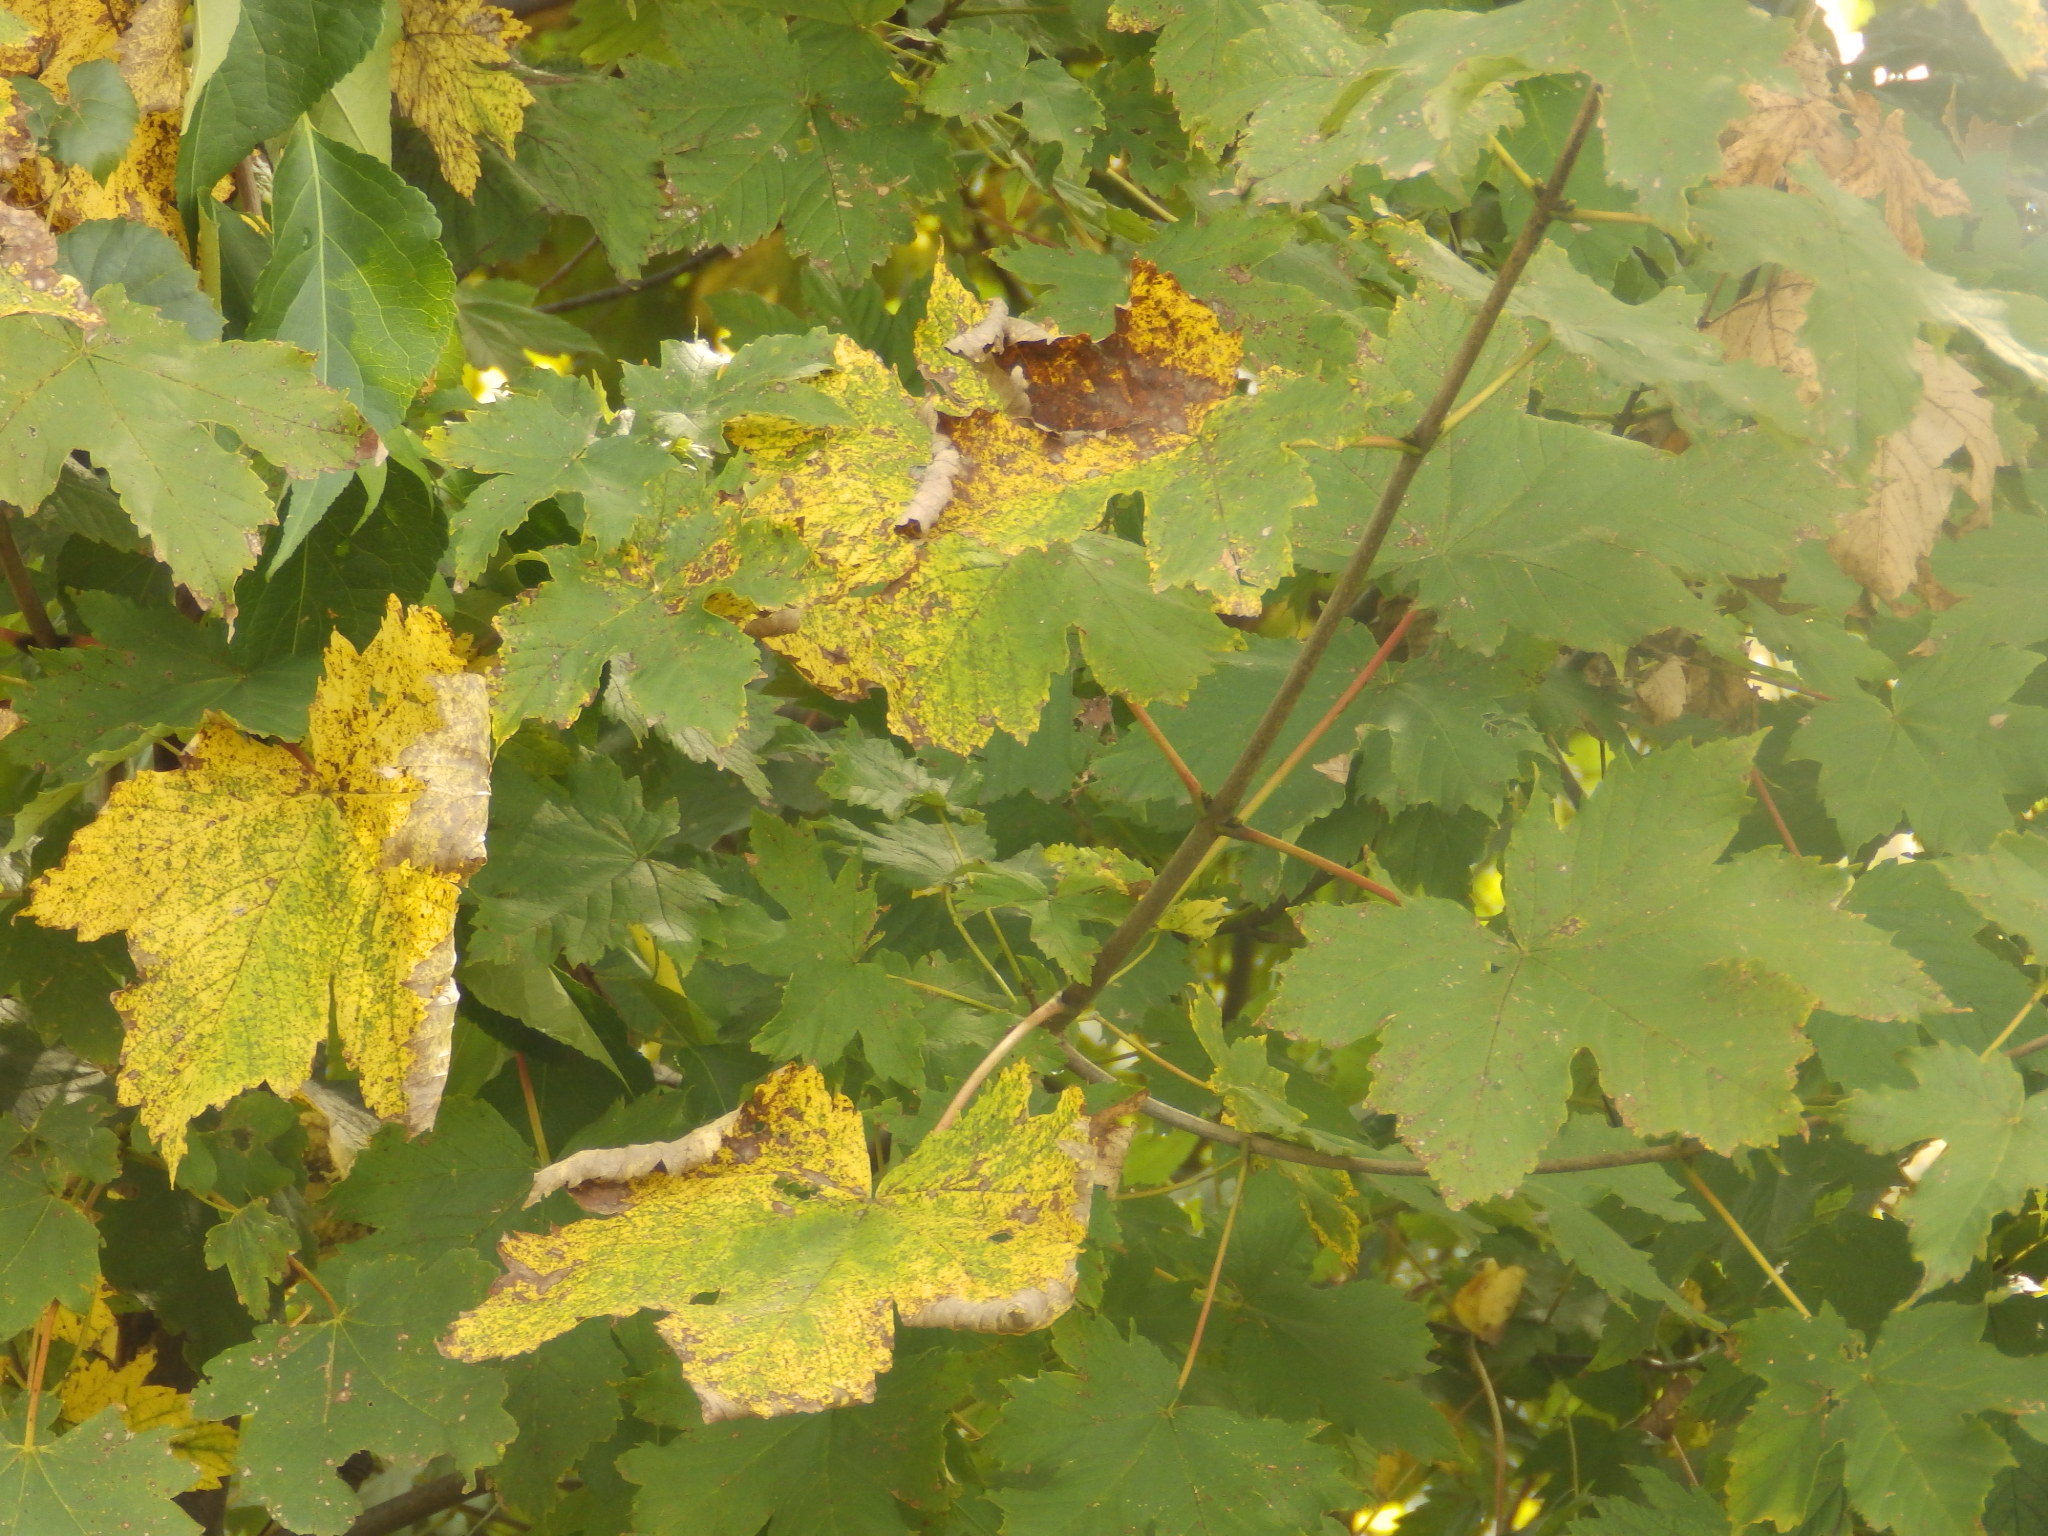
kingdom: Plantae
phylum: Tracheophyta
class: Magnoliopsida
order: Sapindales
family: Sapindaceae
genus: Acer
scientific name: Acer pseudoplatanus
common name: Sycamore
